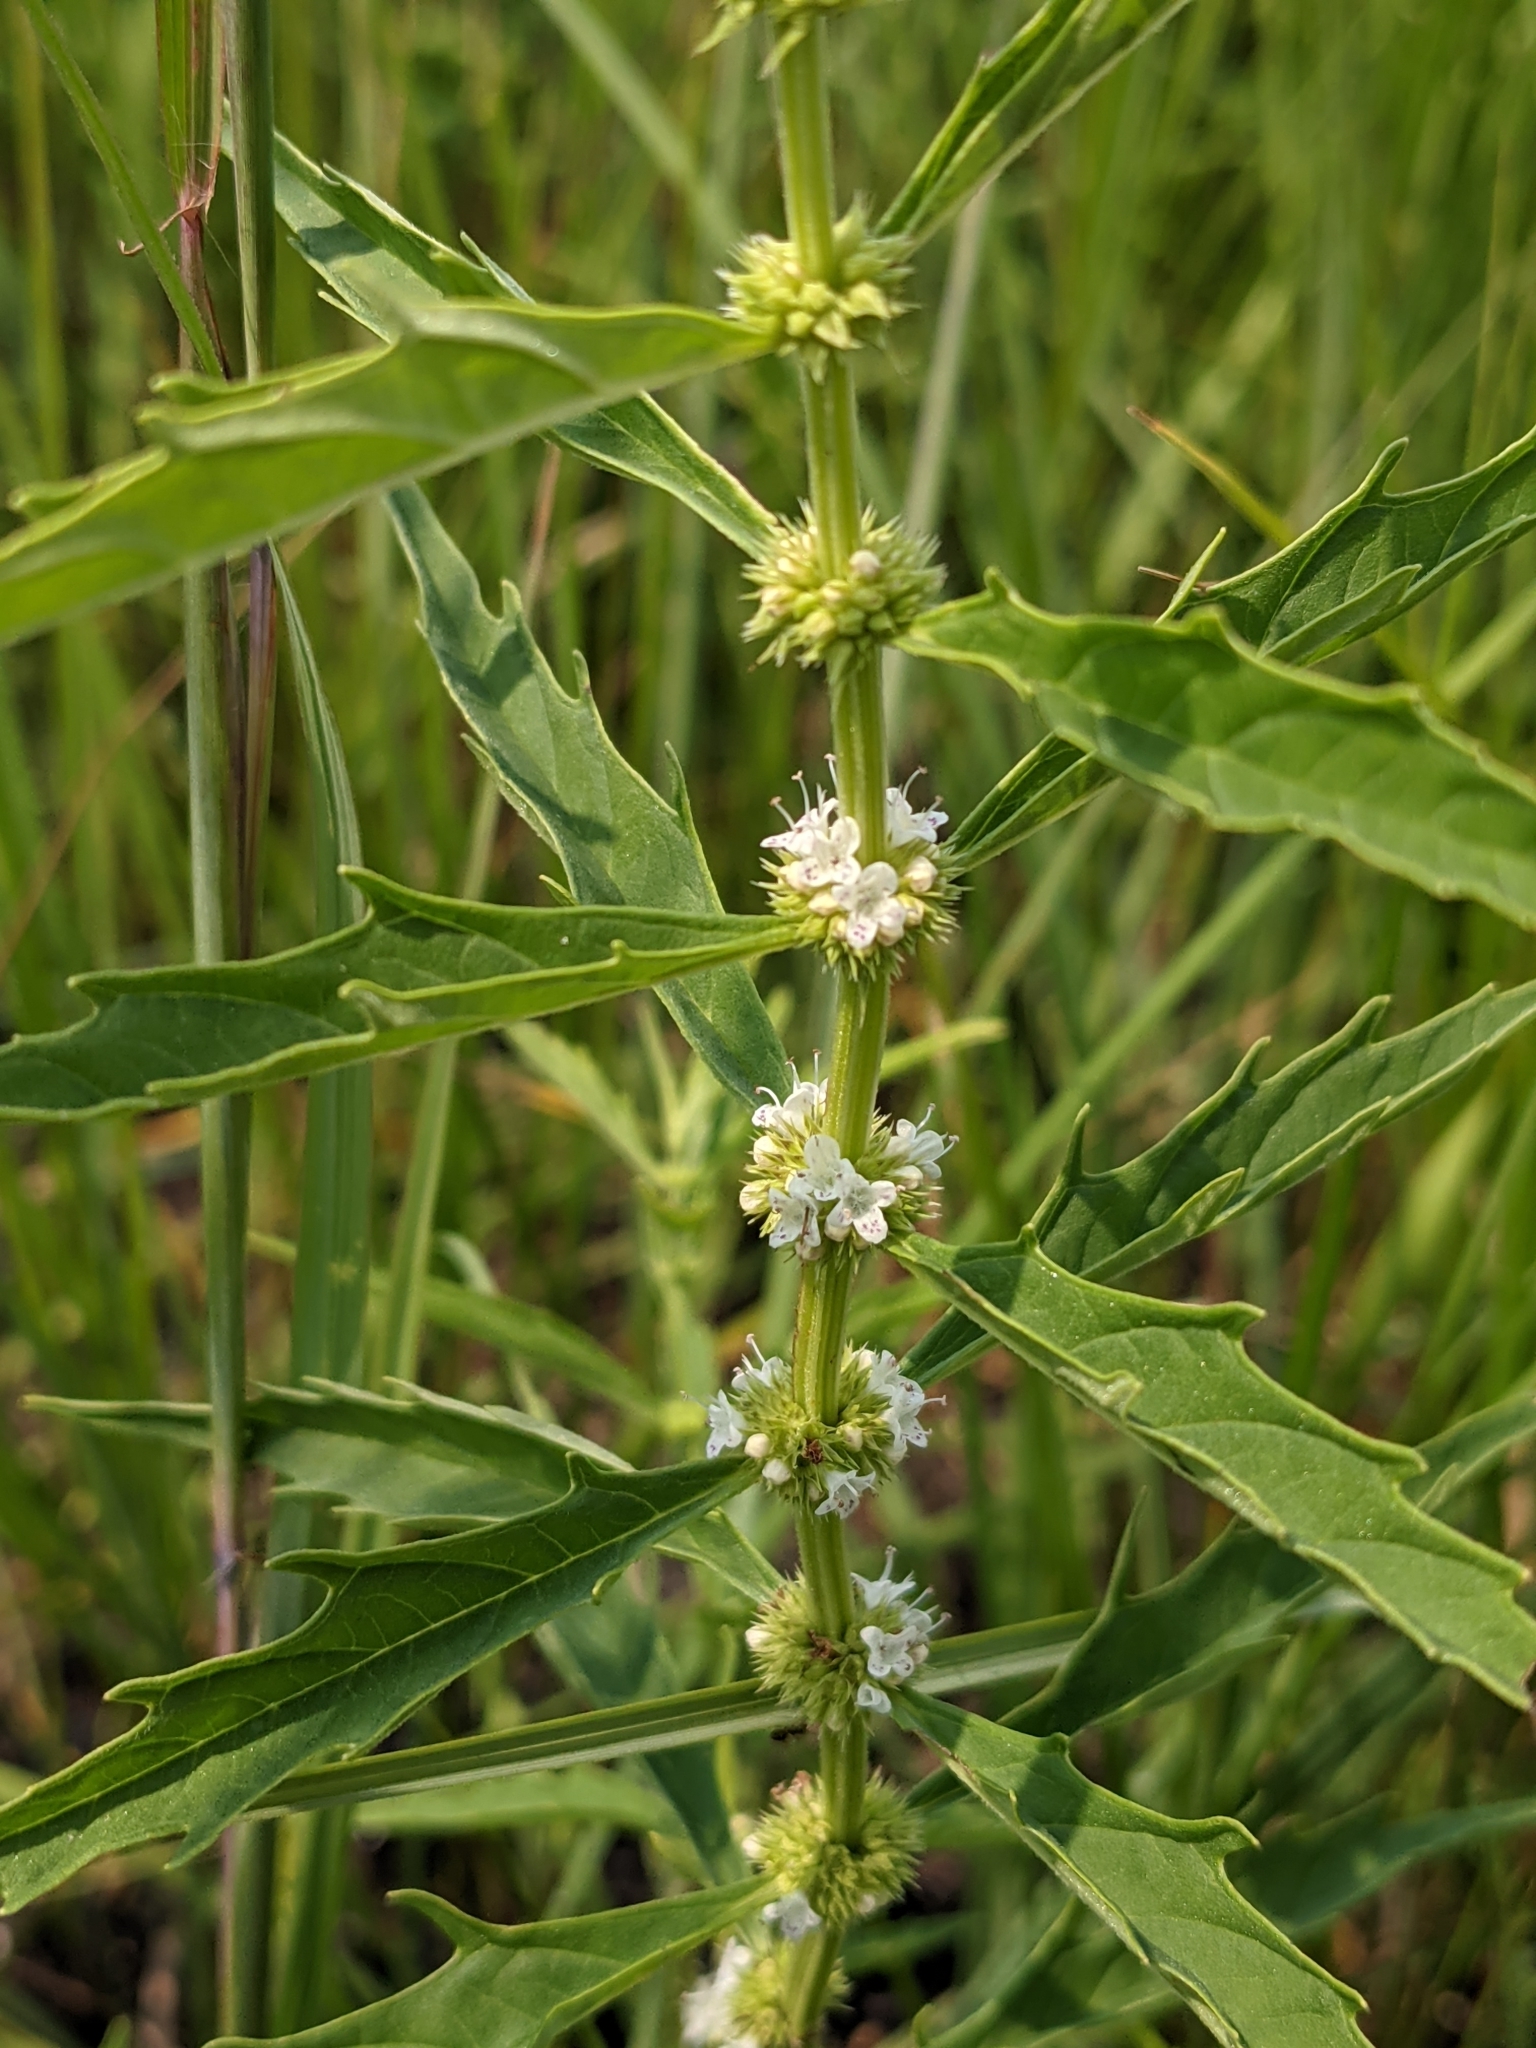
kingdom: Plantae
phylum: Tracheophyta
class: Magnoliopsida
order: Lamiales
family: Lamiaceae
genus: Lycopus
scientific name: Lycopus americanus
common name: American bugleweed
